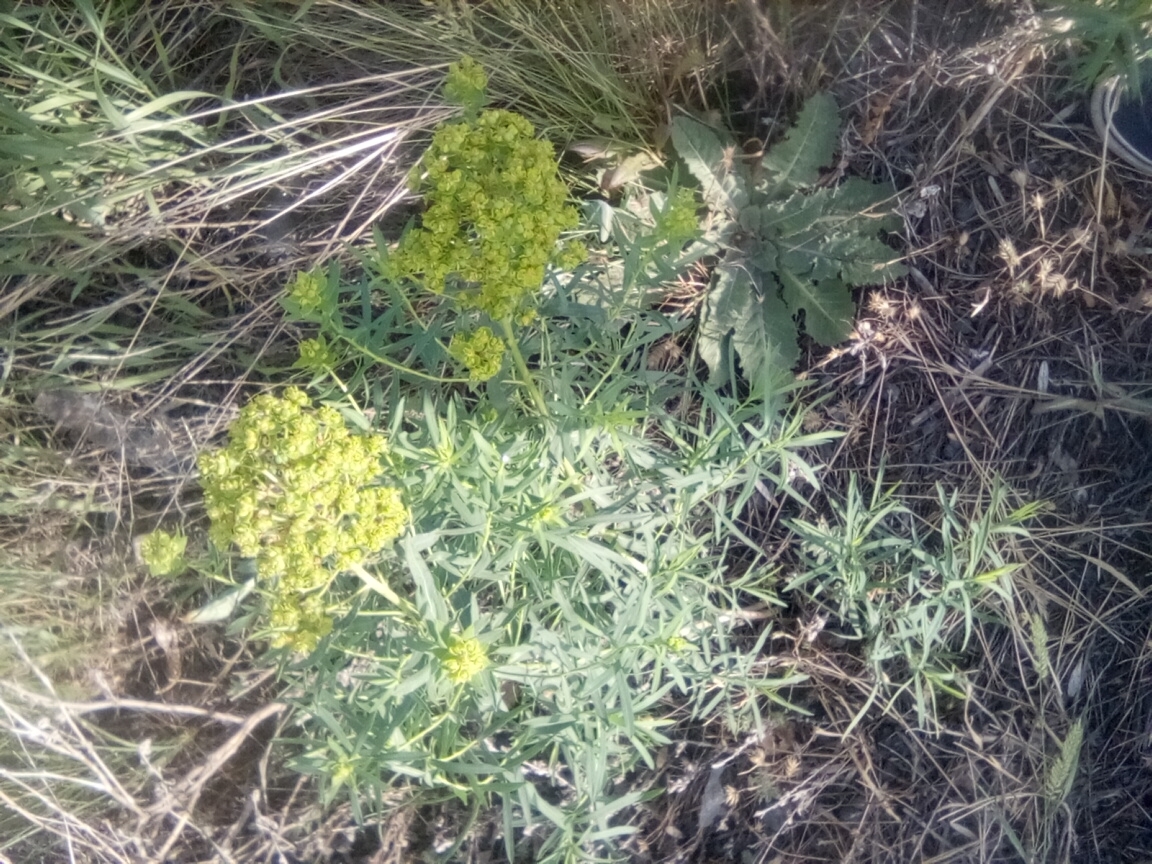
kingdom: Plantae
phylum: Tracheophyta
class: Magnoliopsida
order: Malpighiales
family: Euphorbiaceae
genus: Euphorbia
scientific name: Euphorbia virgata
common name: Leafy spurge
